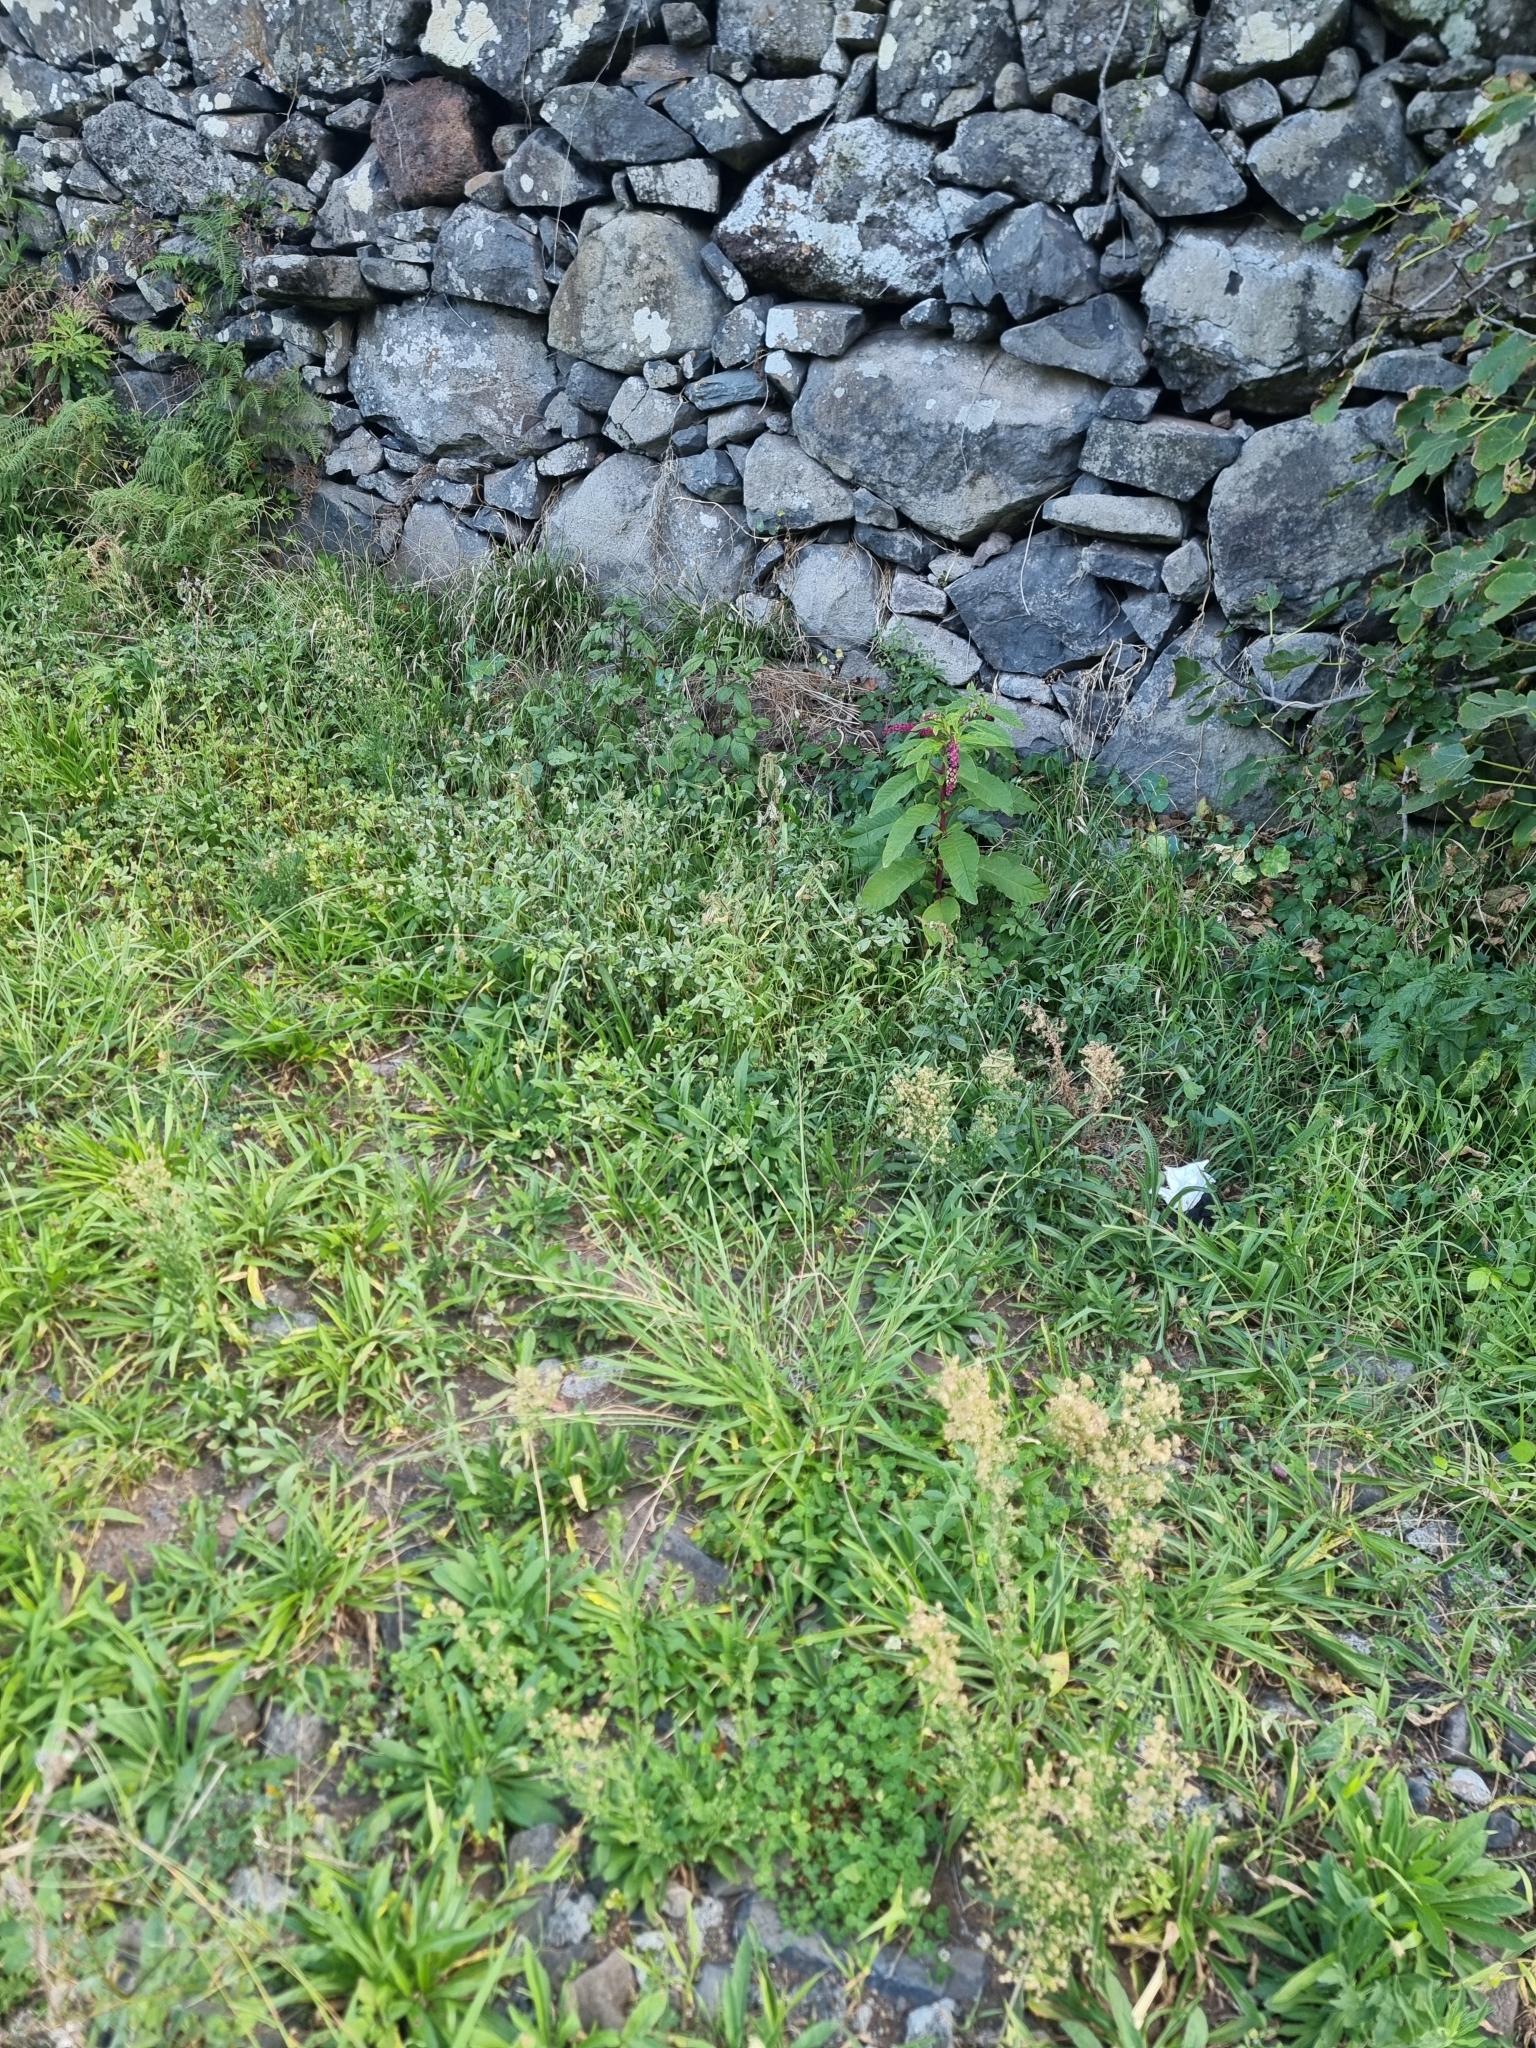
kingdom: Plantae
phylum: Tracheophyta
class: Magnoliopsida
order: Caryophyllales
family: Phytolaccaceae
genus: Phytolacca
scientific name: Phytolacca americana
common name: American pokeweed
